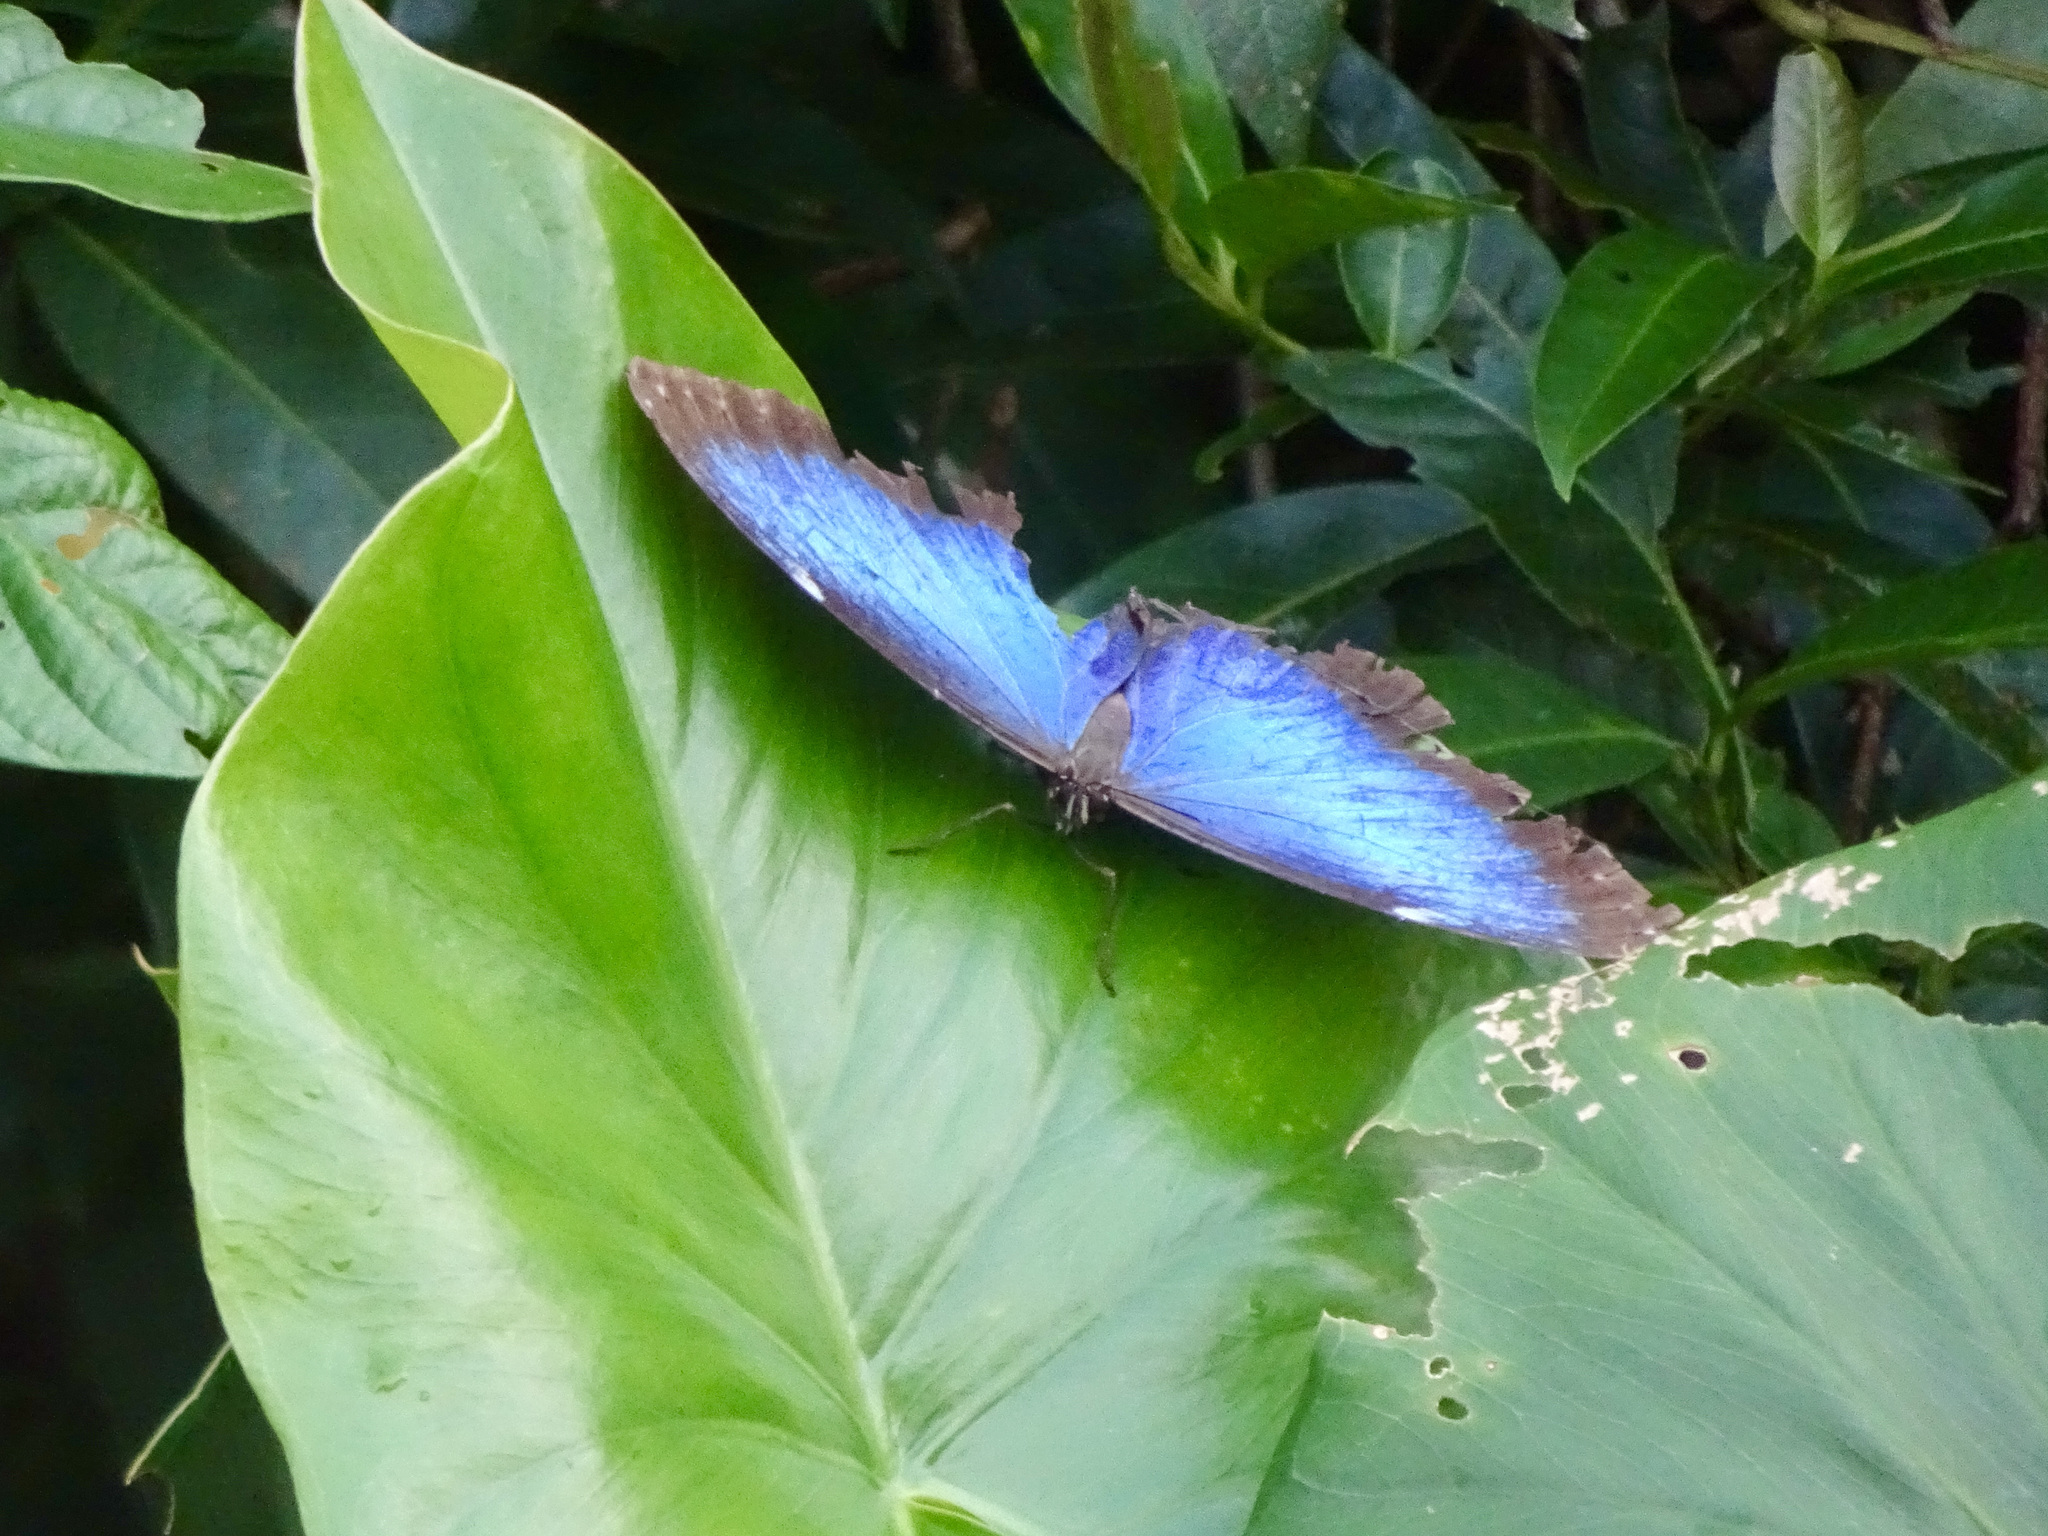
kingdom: Animalia
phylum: Arthropoda
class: Insecta
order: Lepidoptera
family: Nymphalidae
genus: Morpho
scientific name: Morpho helenor
